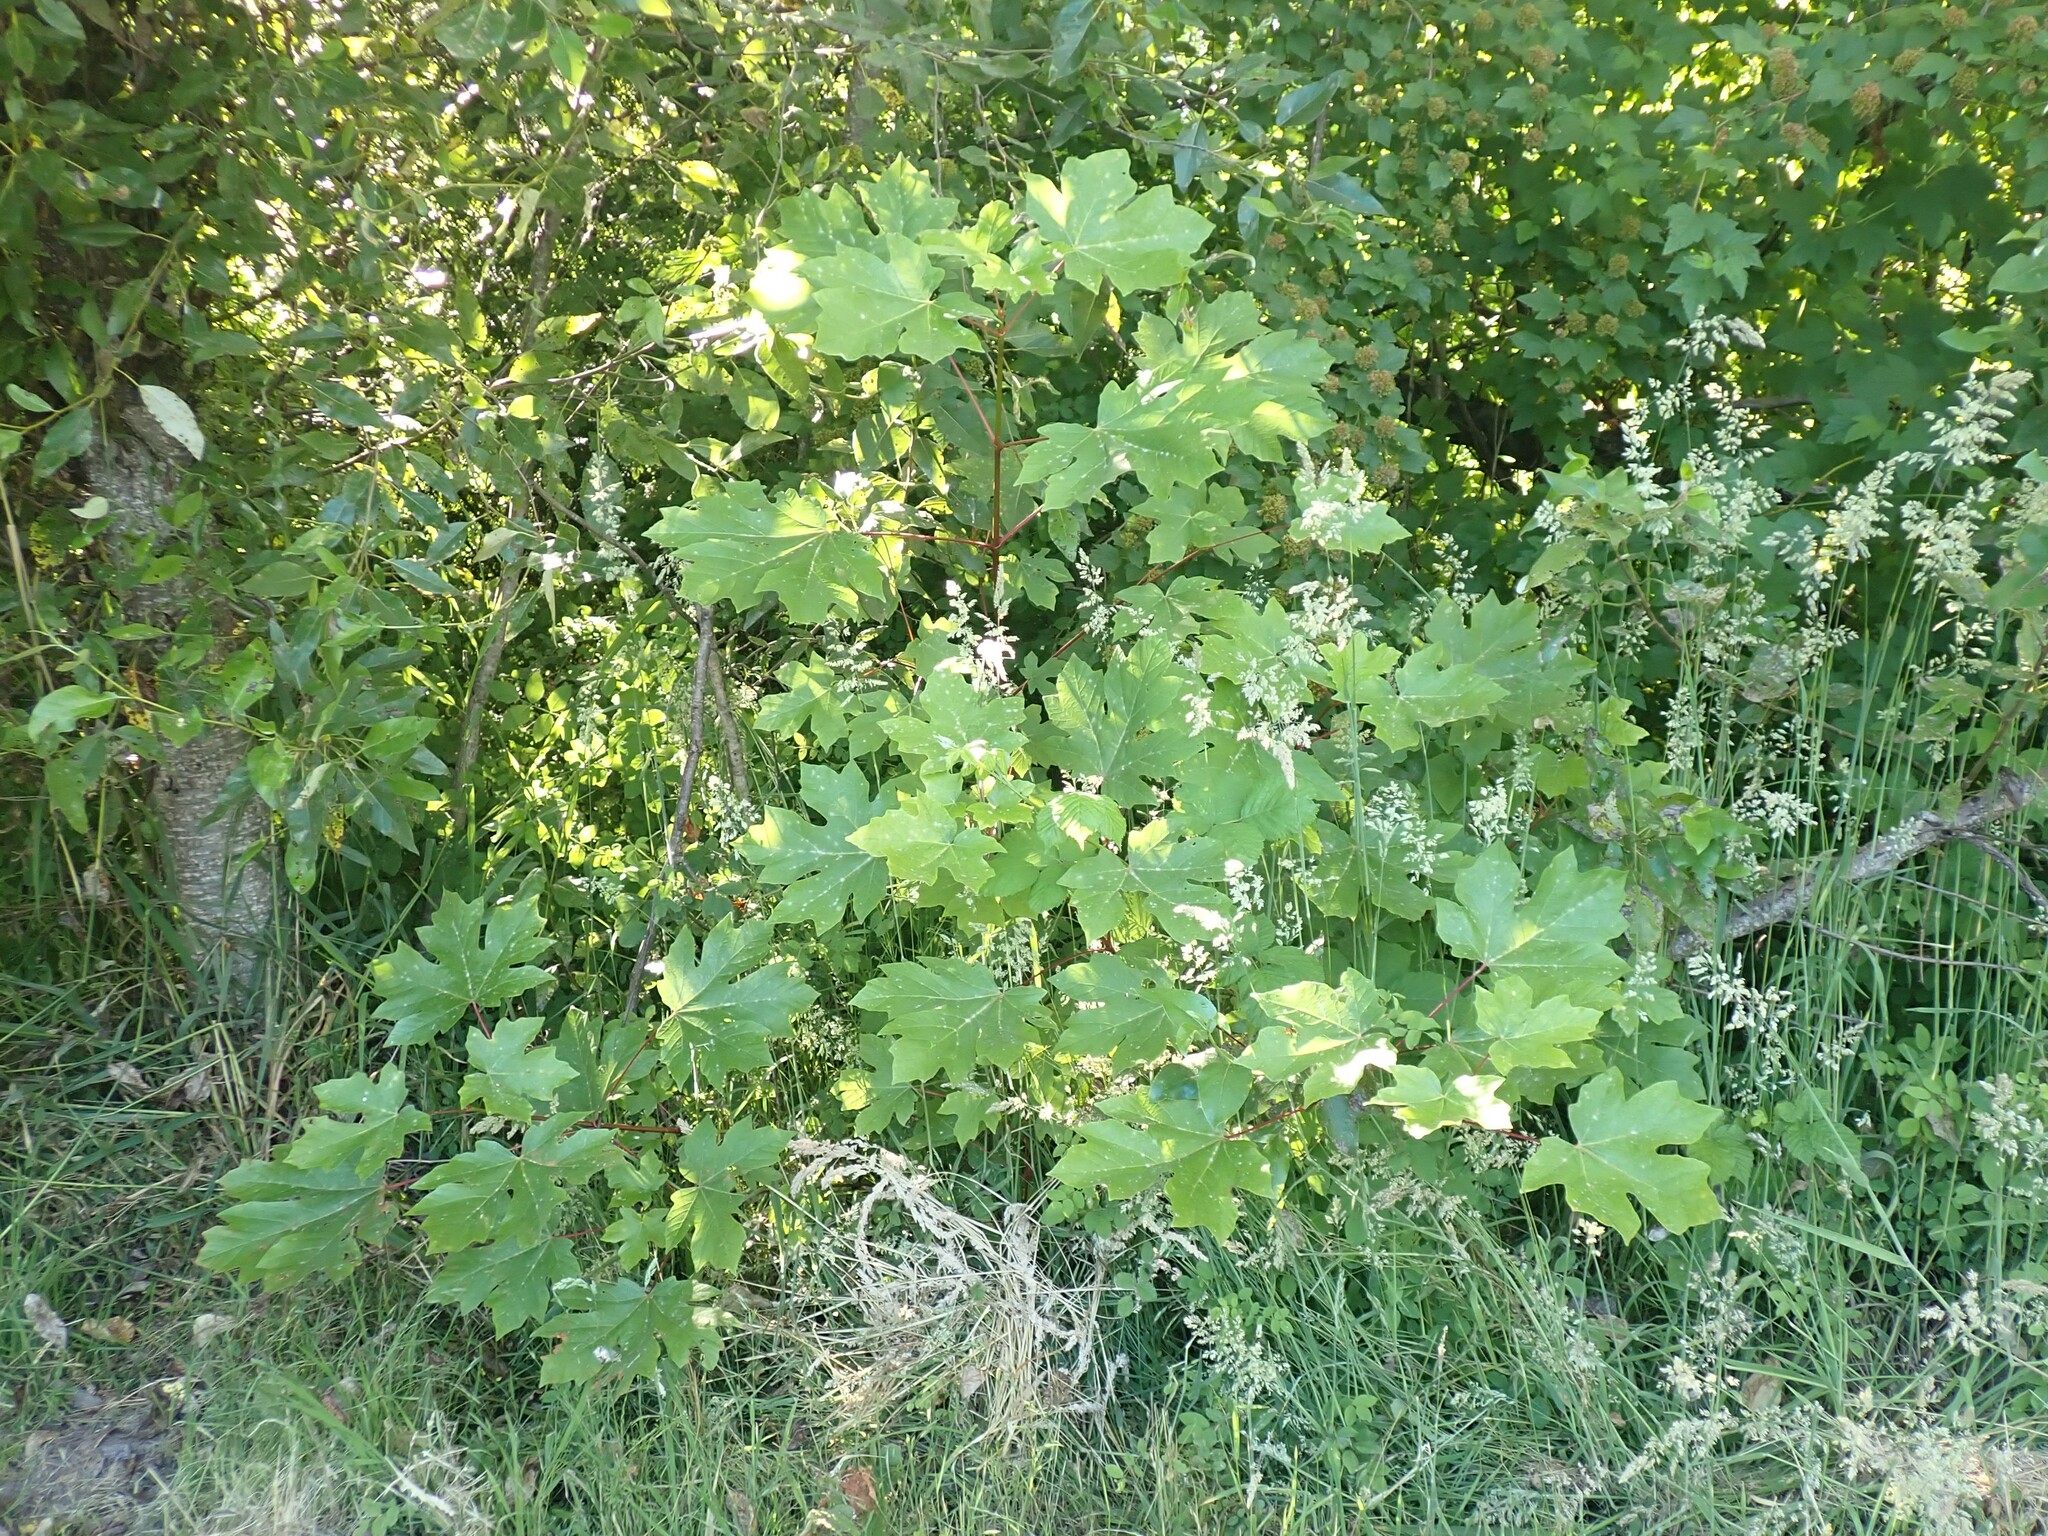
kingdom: Plantae
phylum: Tracheophyta
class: Magnoliopsida
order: Sapindales
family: Sapindaceae
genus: Acer
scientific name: Acer macrophyllum
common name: Oregon maple
